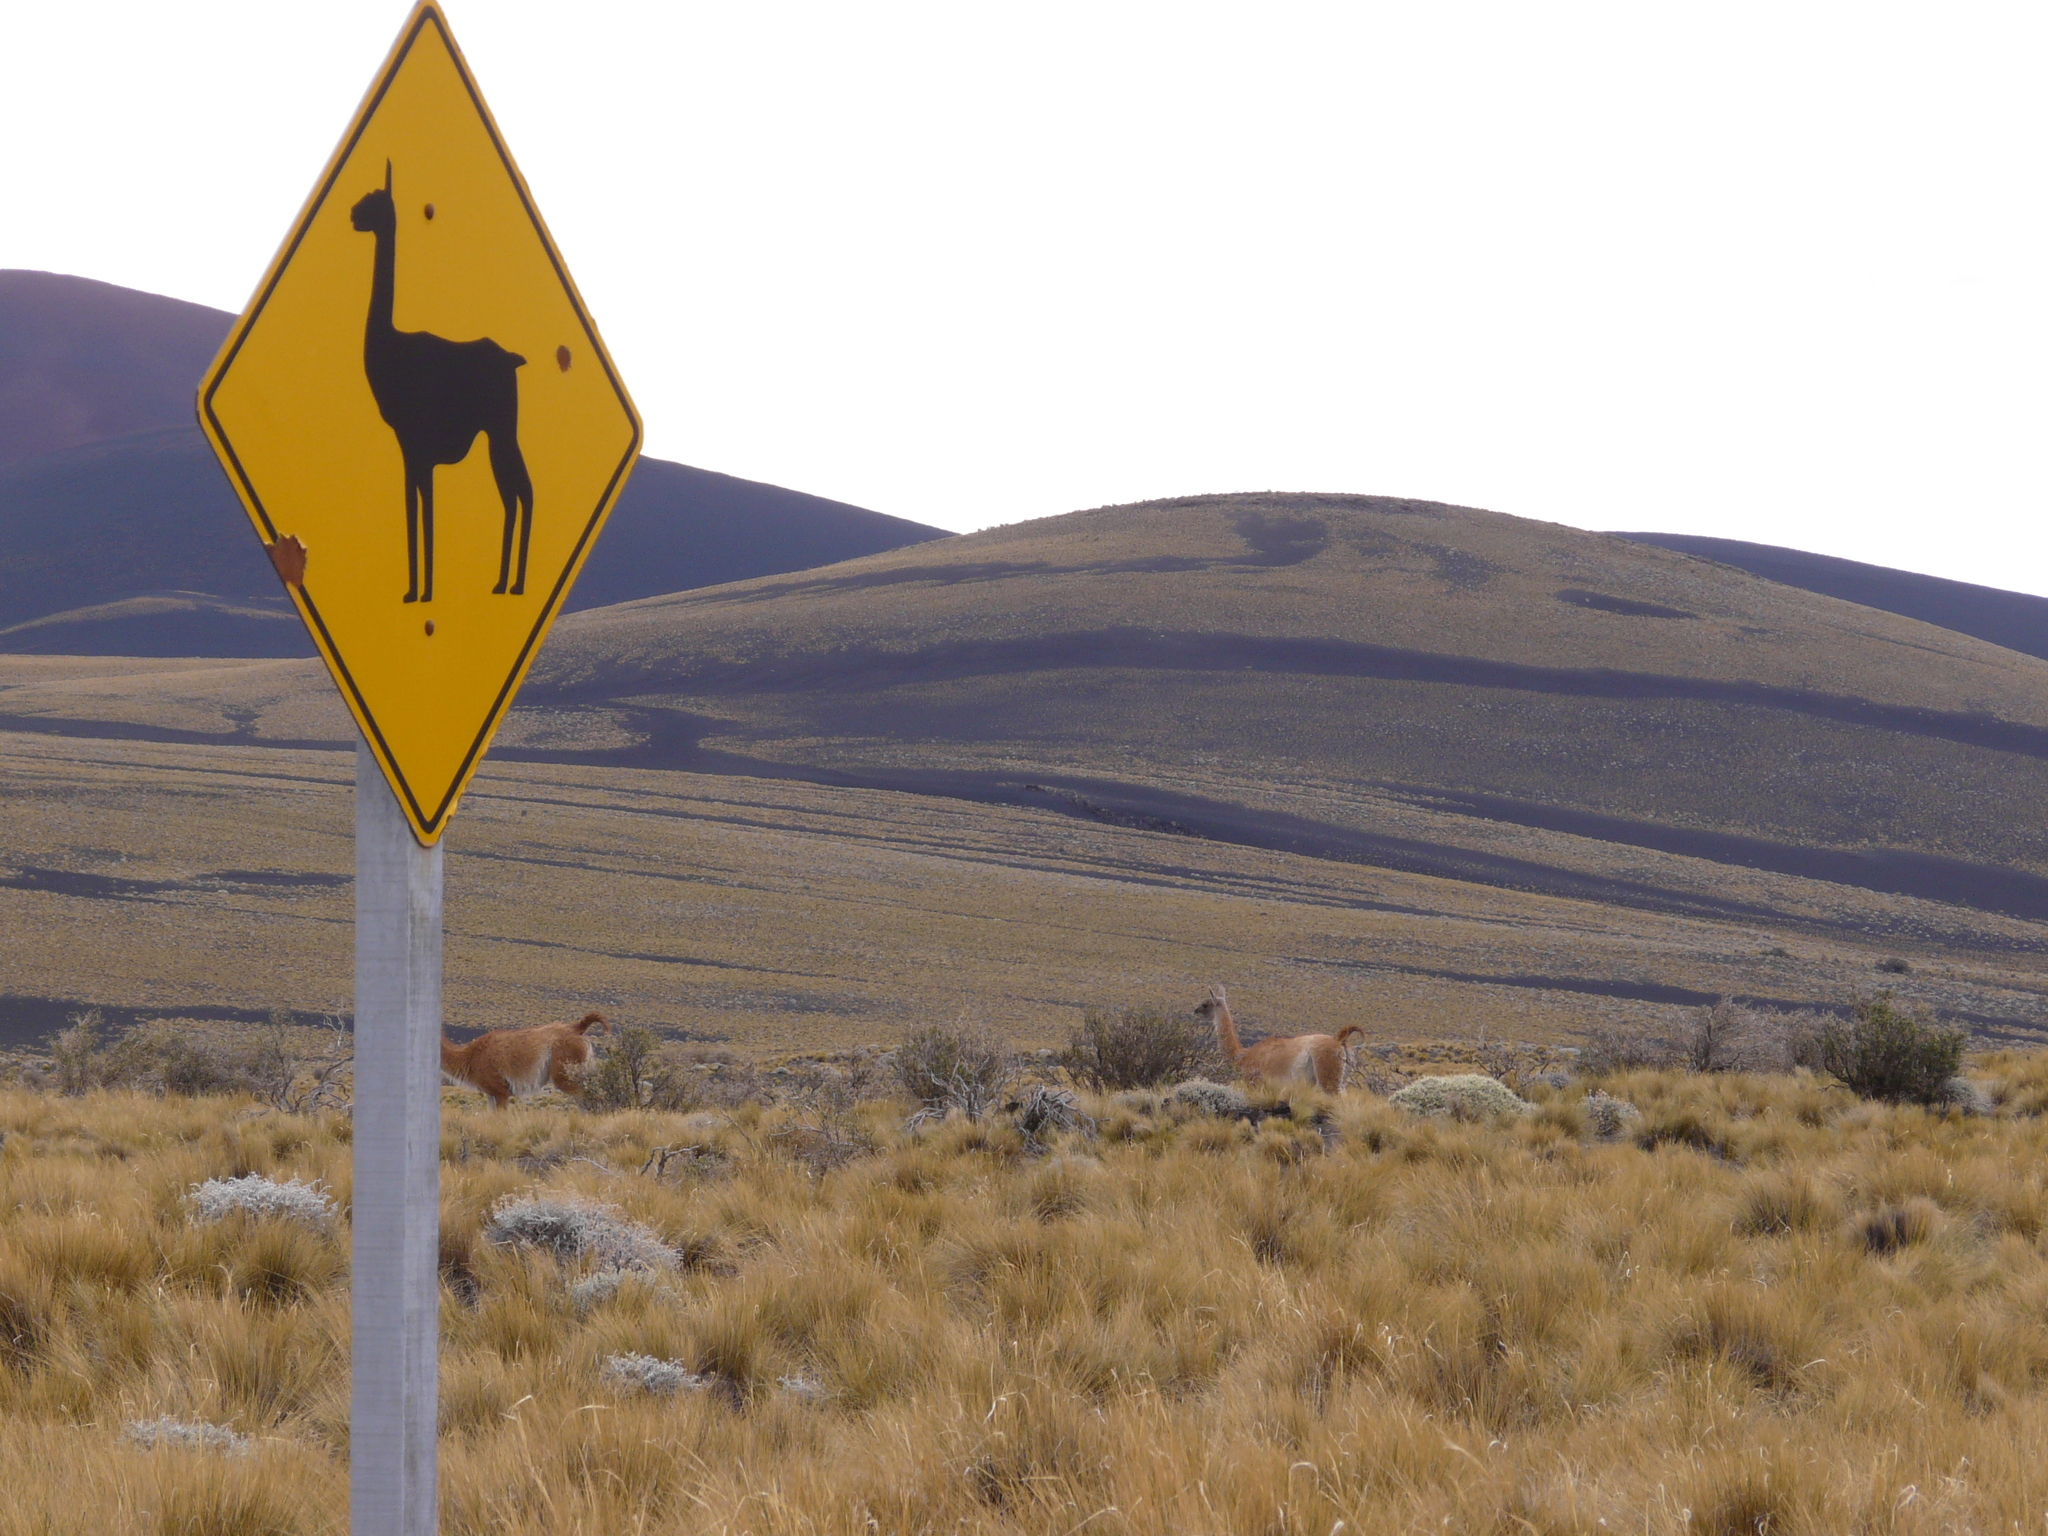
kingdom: Animalia
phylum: Chordata
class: Mammalia
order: Artiodactyla
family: Camelidae
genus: Lama
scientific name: Lama glama
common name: Llama
